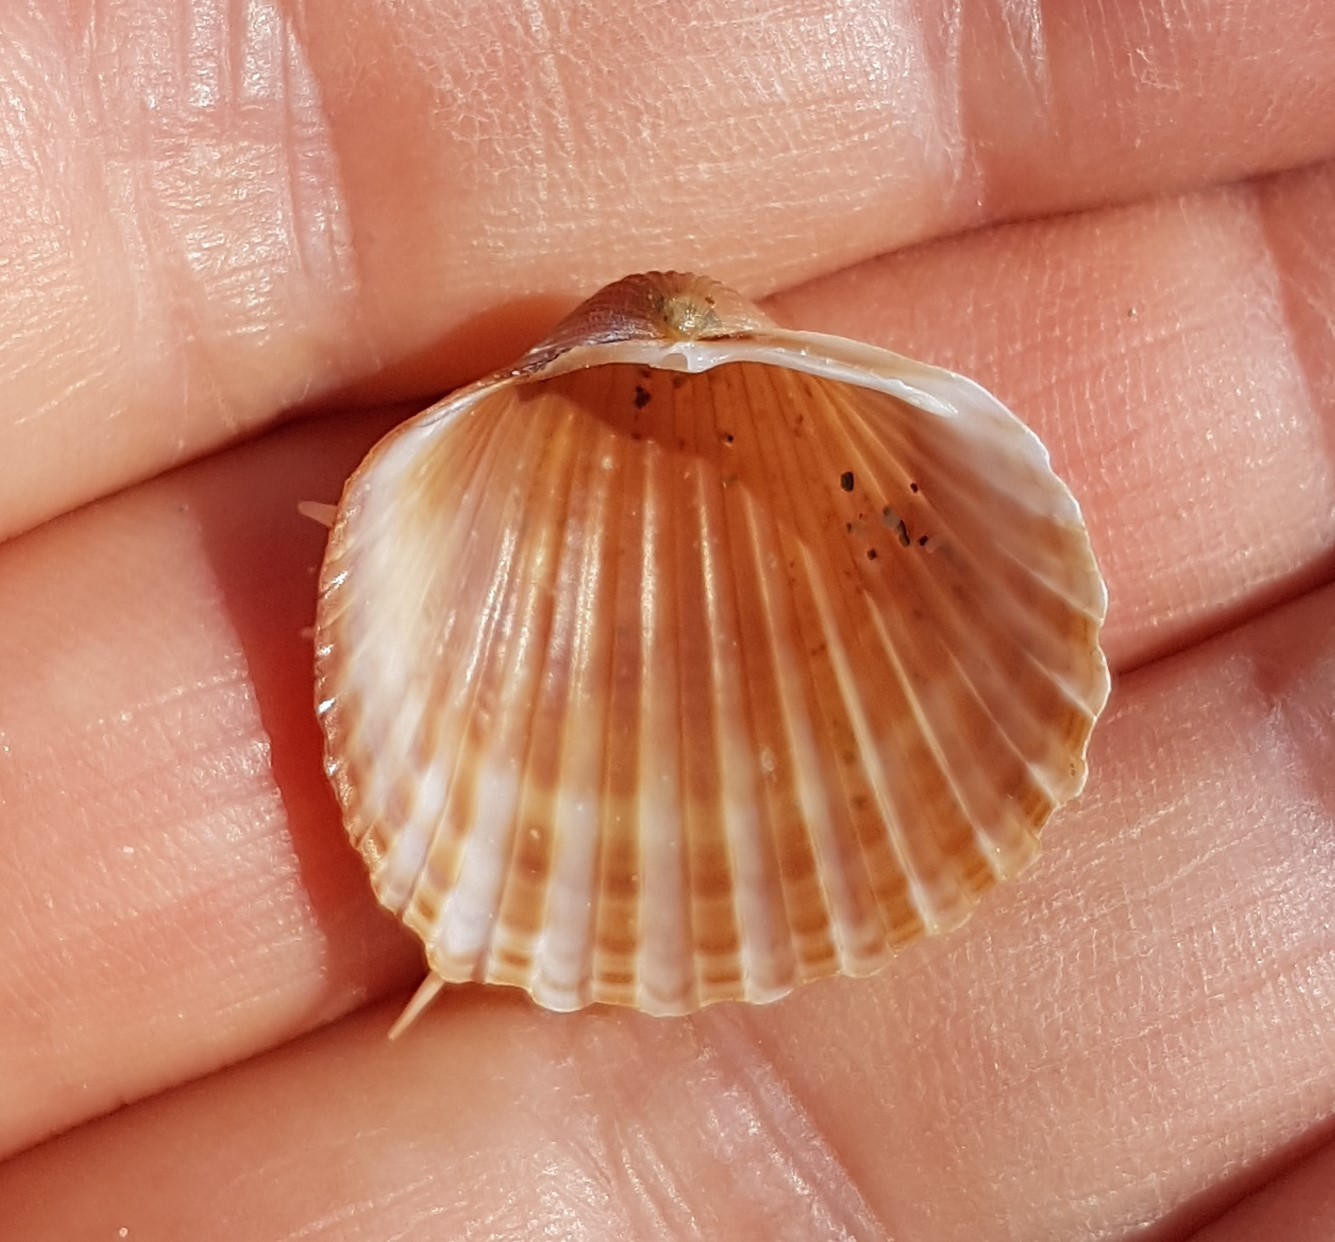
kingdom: Animalia
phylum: Mollusca
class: Bivalvia
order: Cardiida
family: Cardiidae
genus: Acanthocardia
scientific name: Acanthocardia aculeata
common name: Spiny cockle
